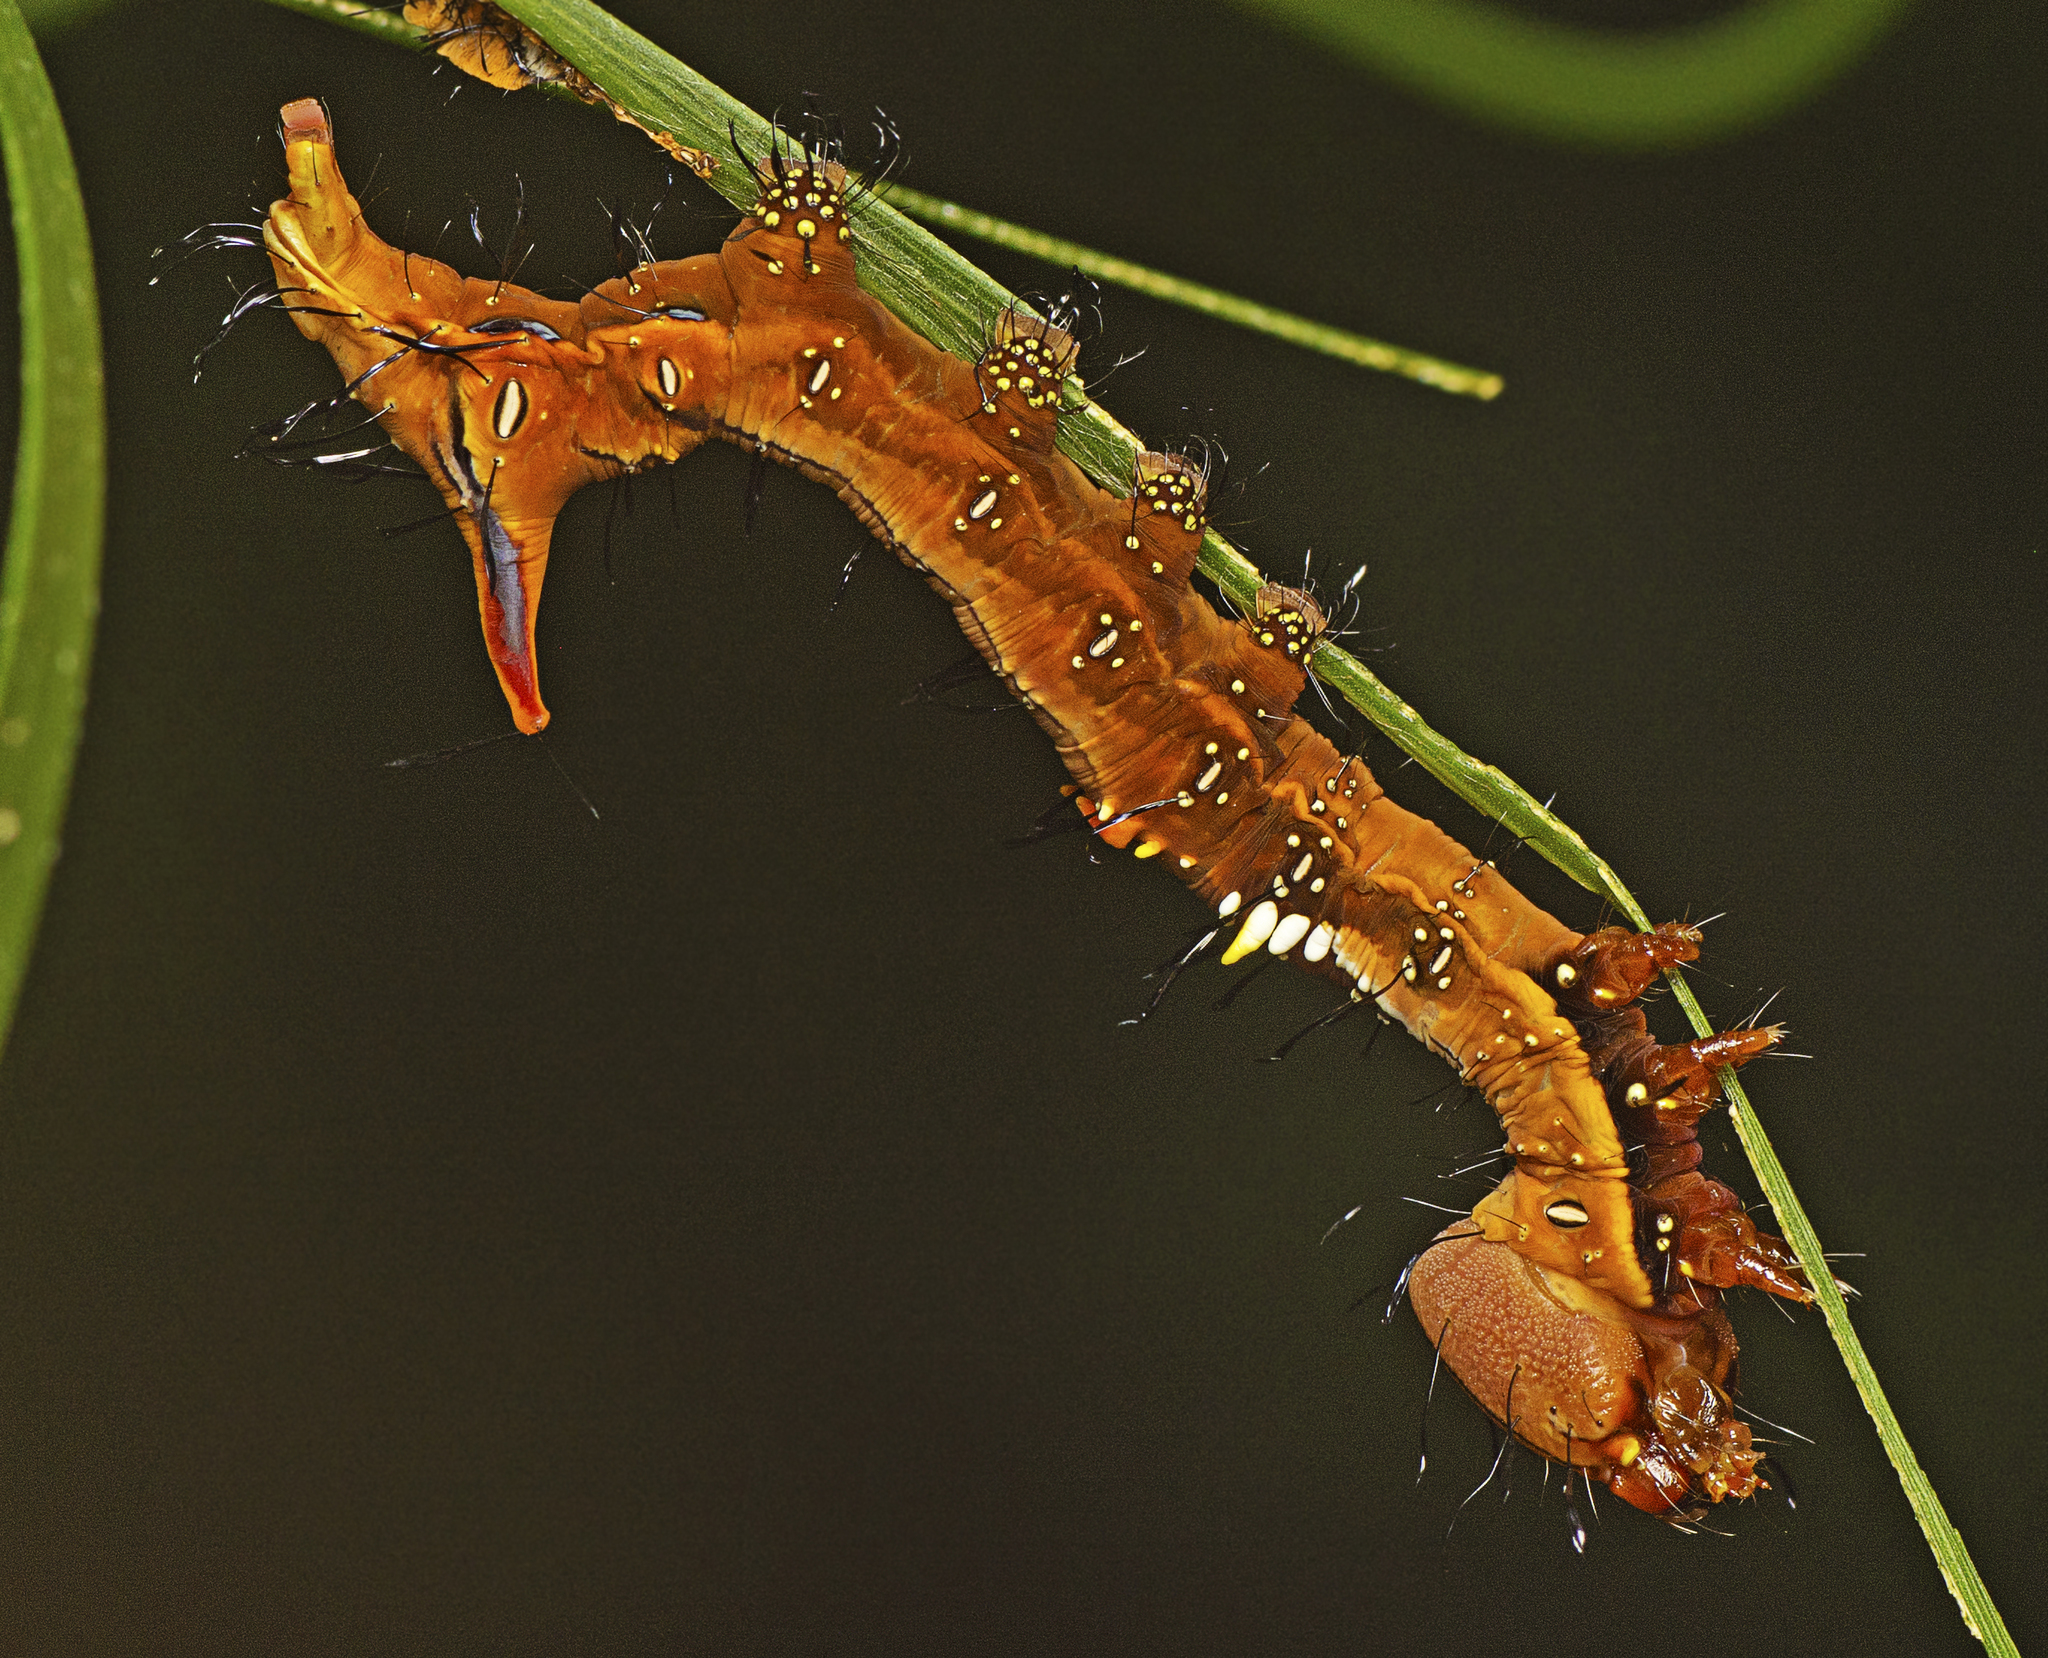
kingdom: Animalia
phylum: Arthropoda
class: Insecta
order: Lepidoptera
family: Notodontidae
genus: Neola
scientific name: Neola semiaurata
